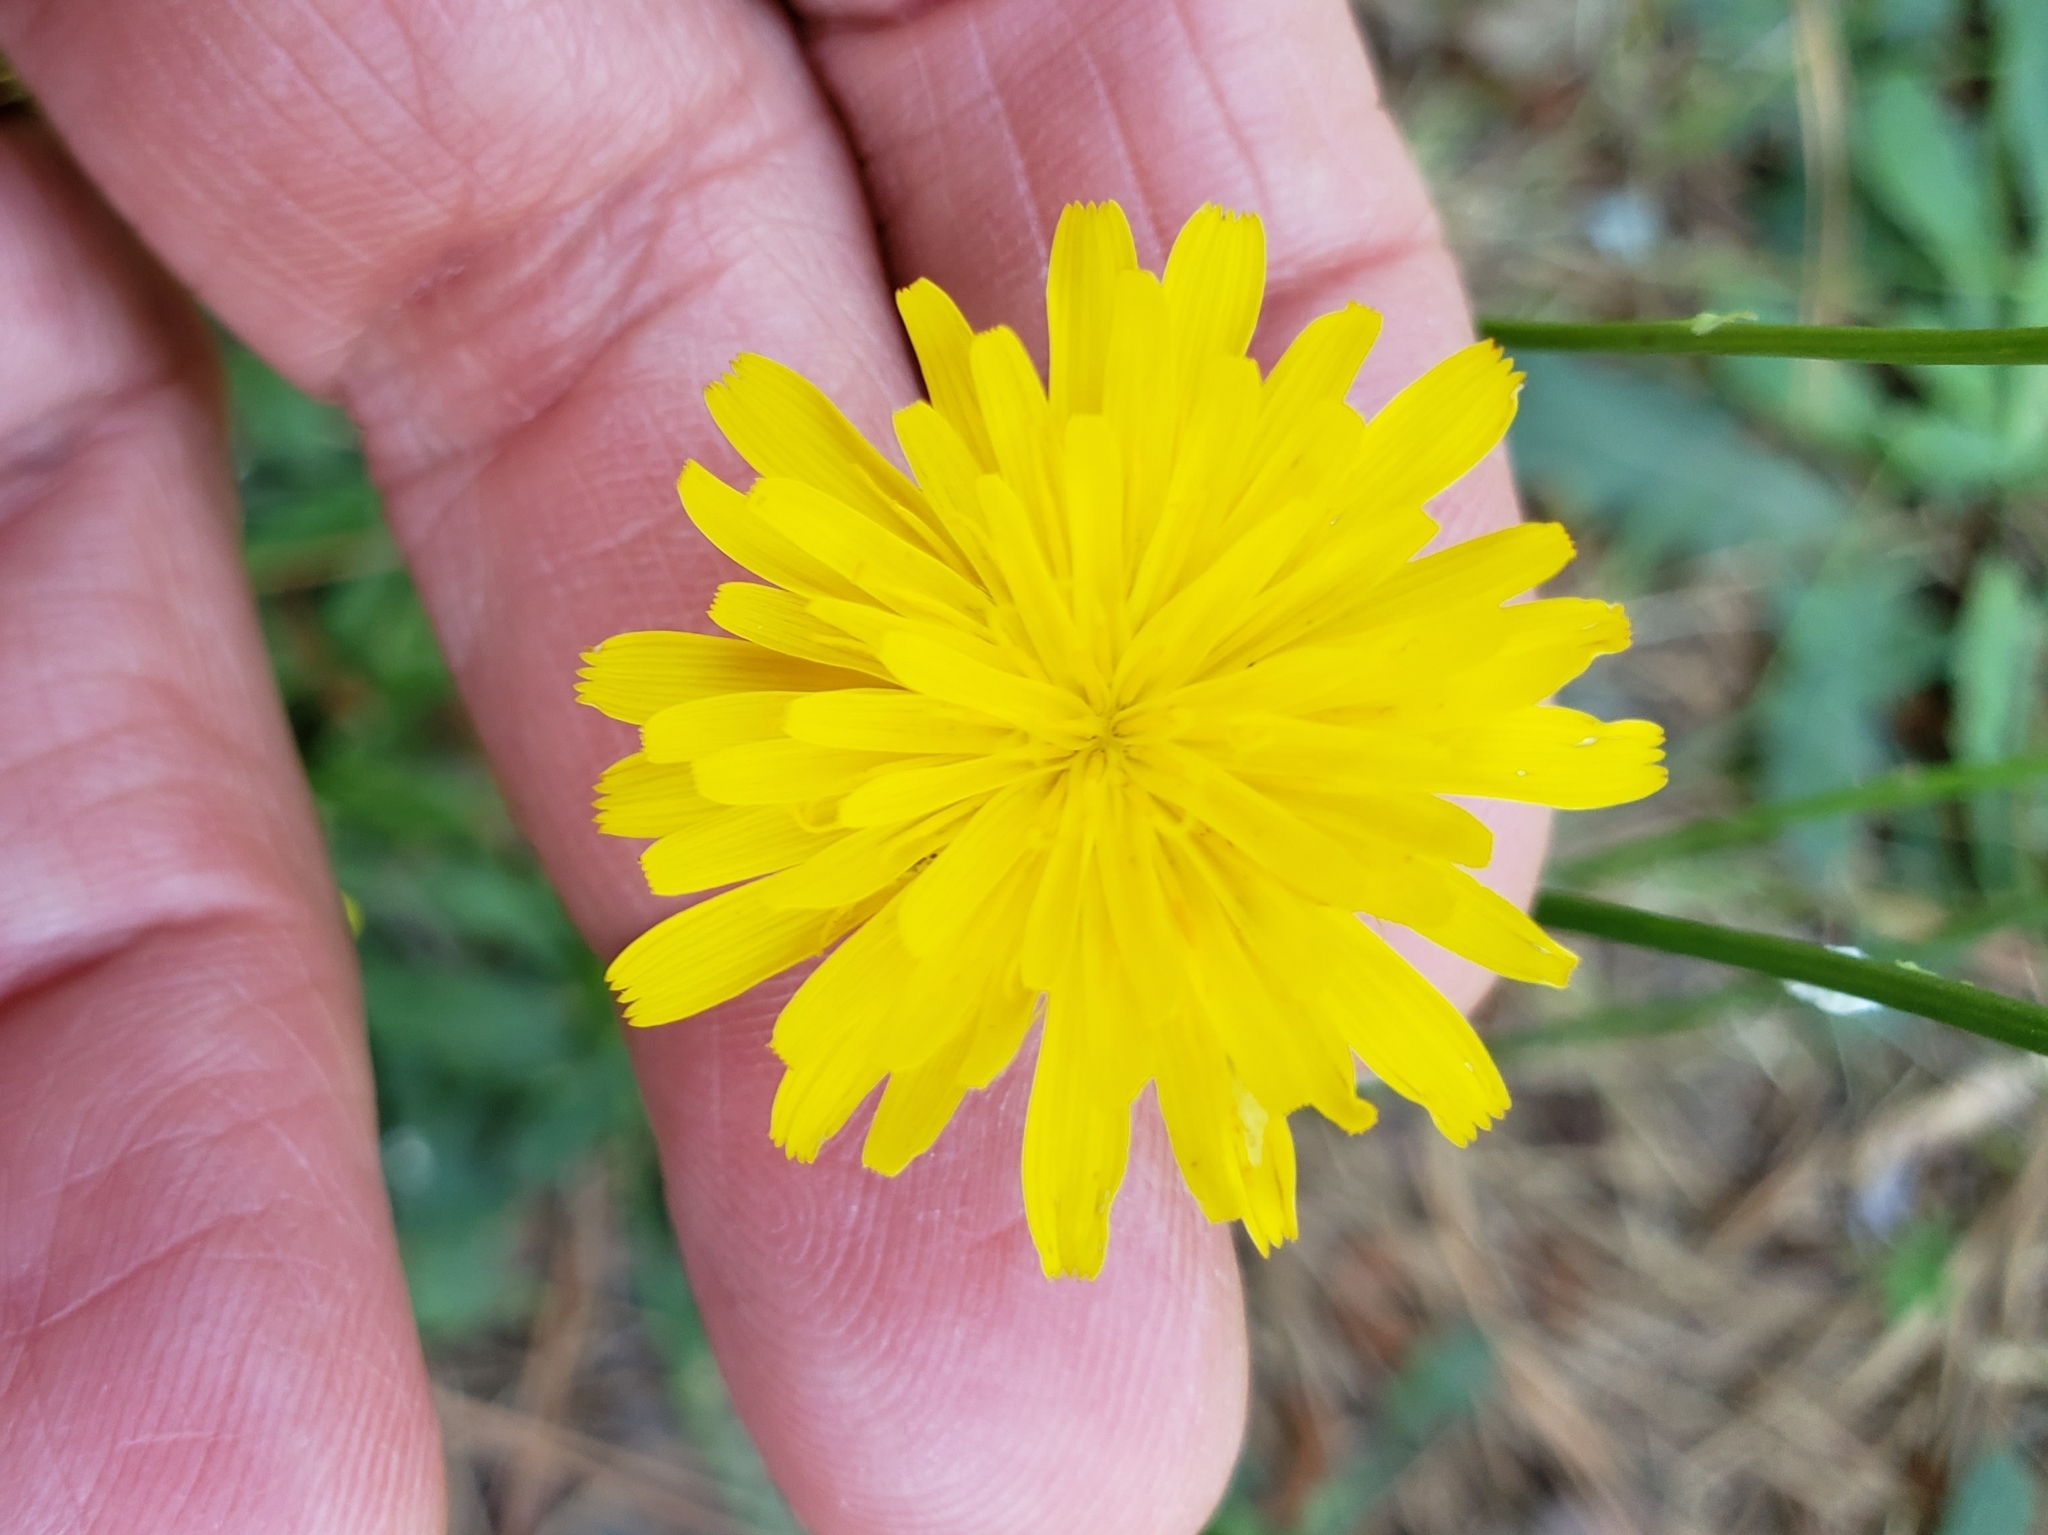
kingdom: Plantae
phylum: Tracheophyta
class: Magnoliopsida
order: Asterales
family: Asteraceae
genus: Hypochaeris
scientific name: Hypochaeris radicata
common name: Flatweed
